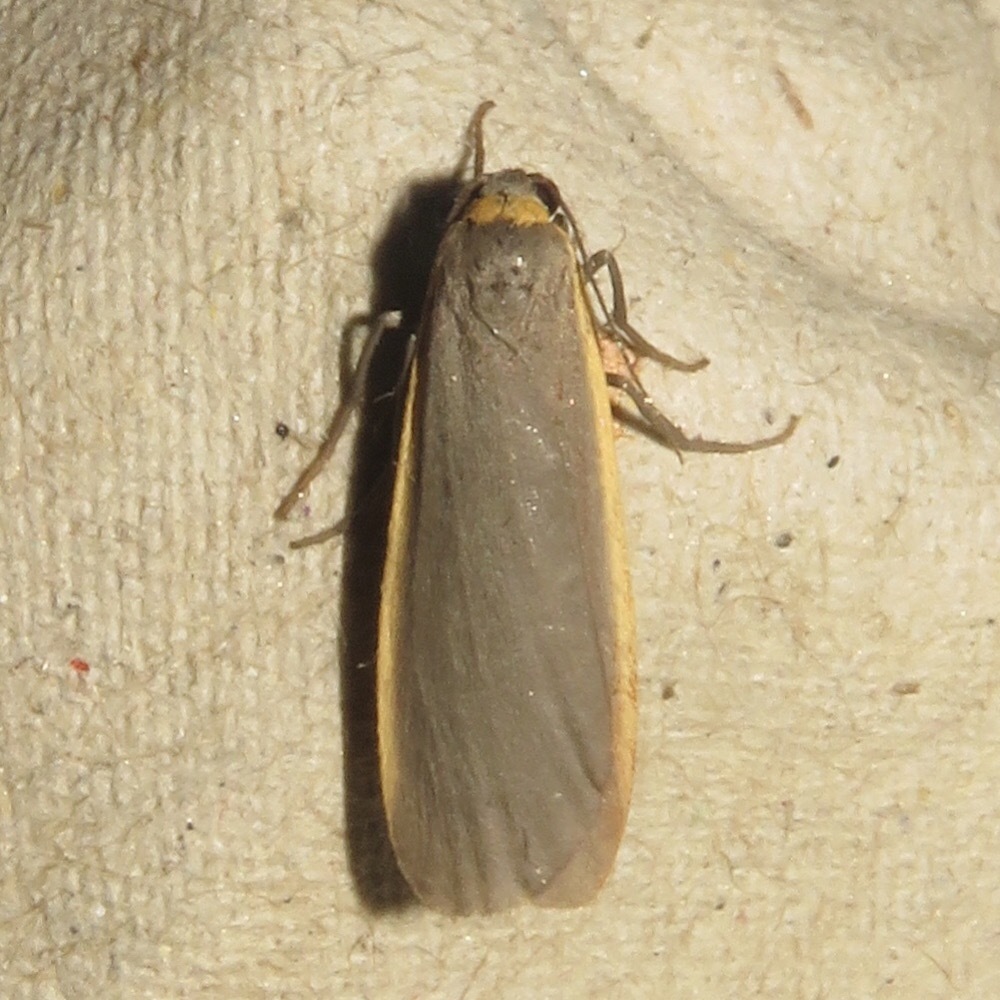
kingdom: Animalia
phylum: Arthropoda
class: Insecta
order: Lepidoptera
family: Erebidae
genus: Manulea
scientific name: Manulea bicolor
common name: Bicolored moth
